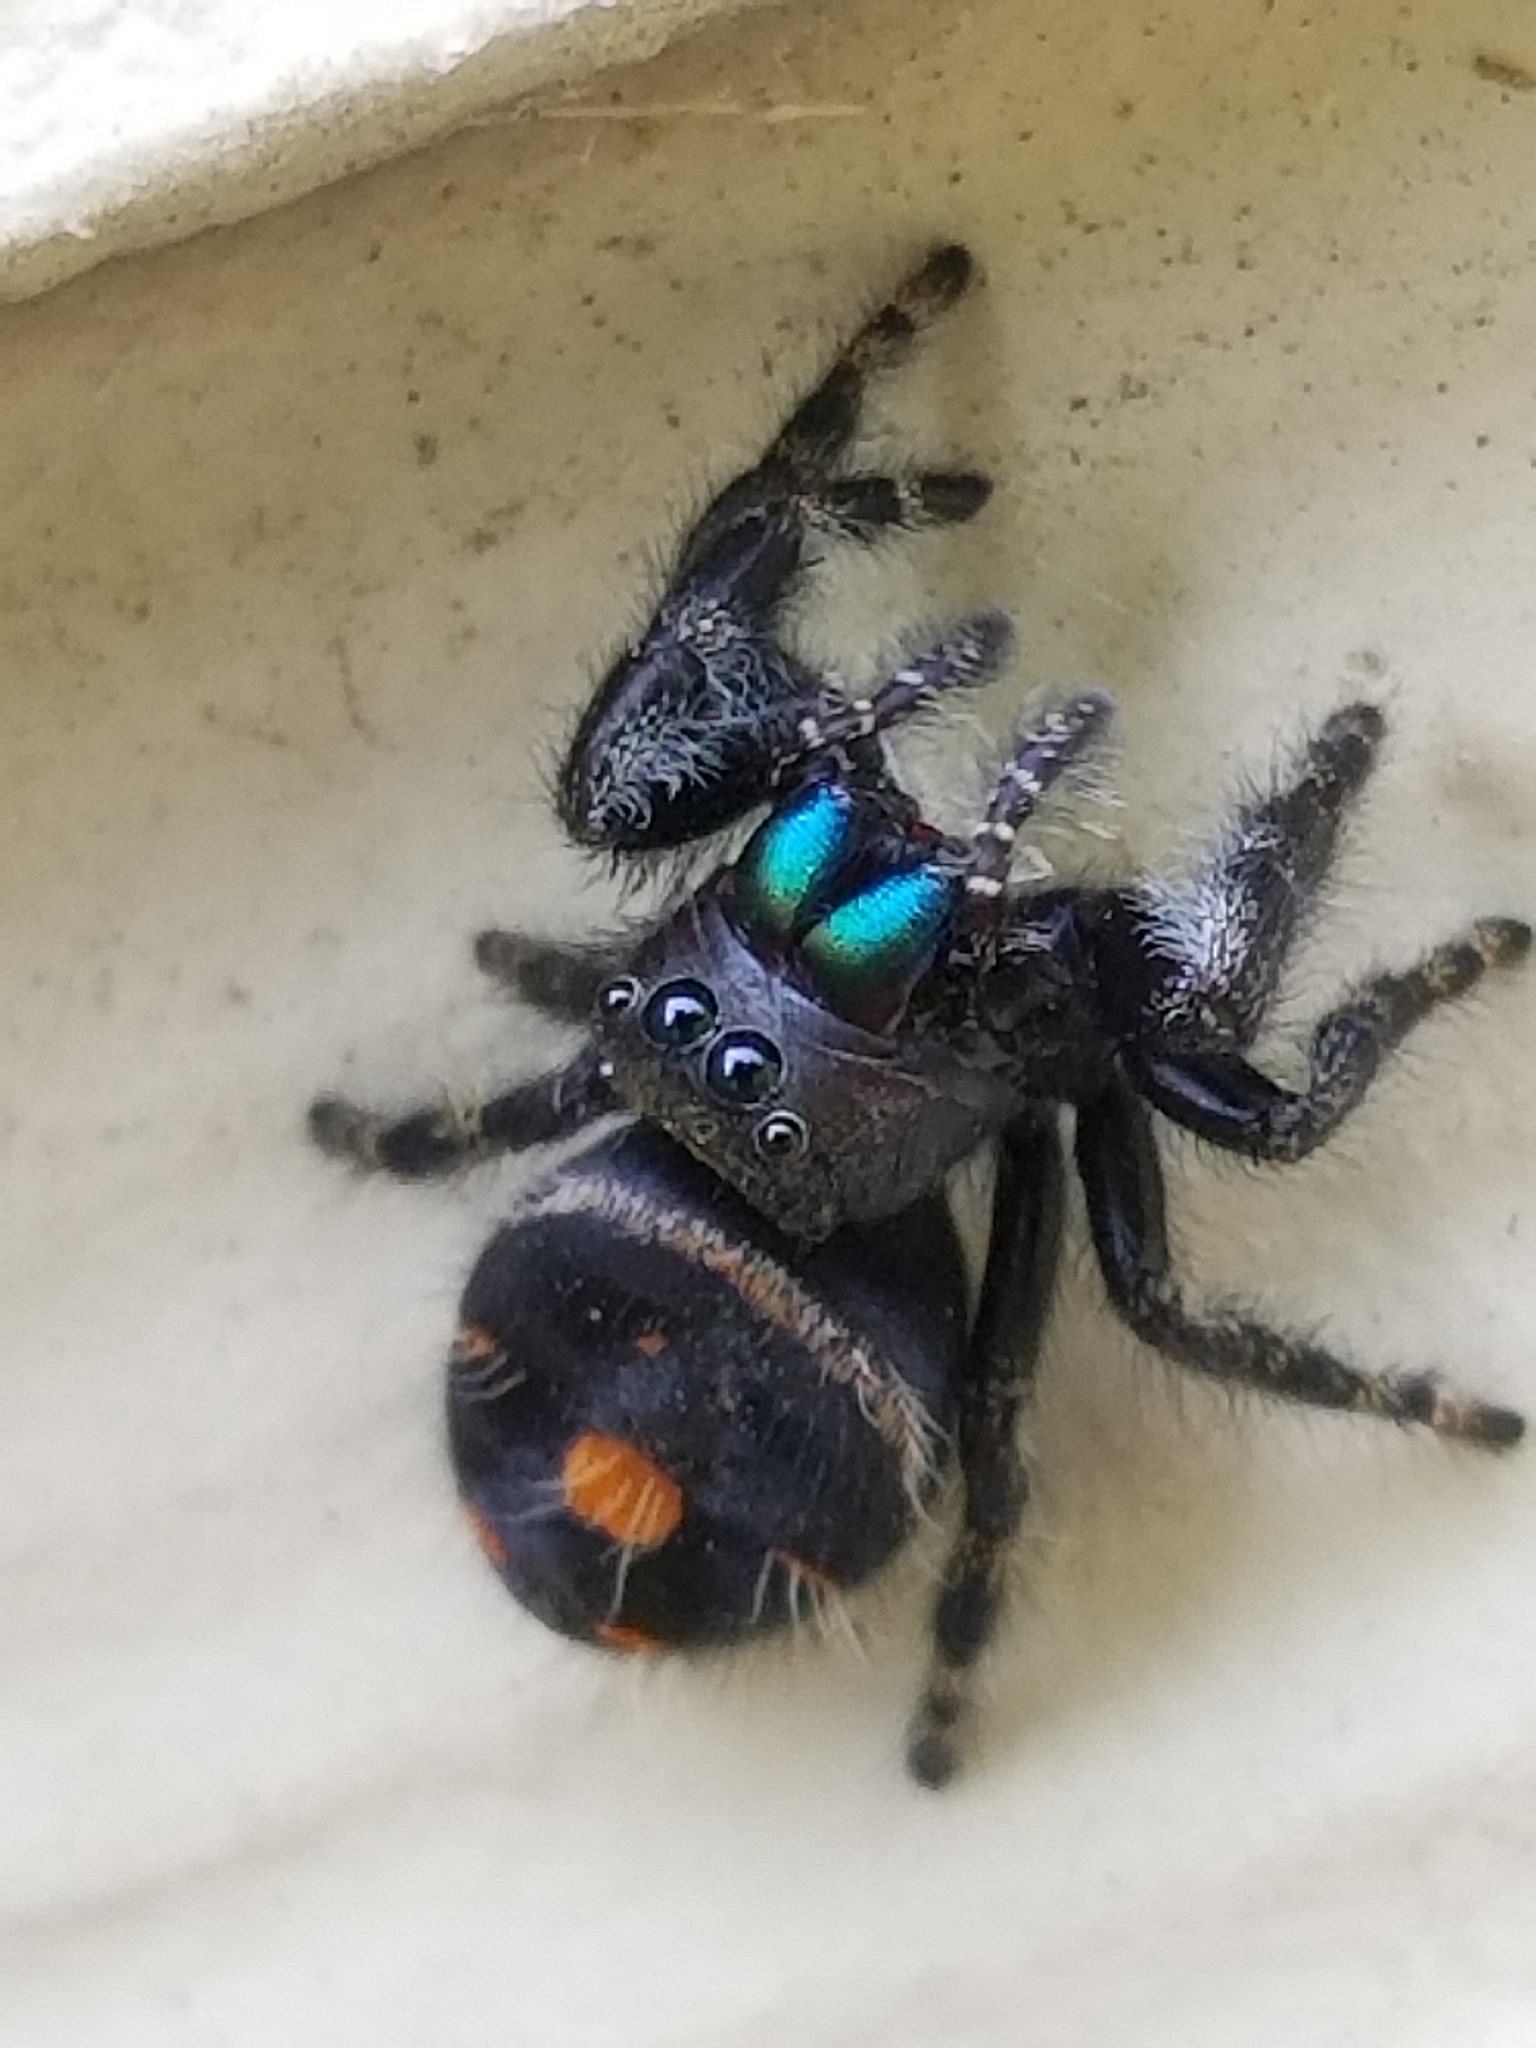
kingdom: Animalia
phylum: Arthropoda
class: Arachnida
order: Araneae
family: Salticidae
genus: Phidippus
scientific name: Phidippus audax
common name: Bold jumper
